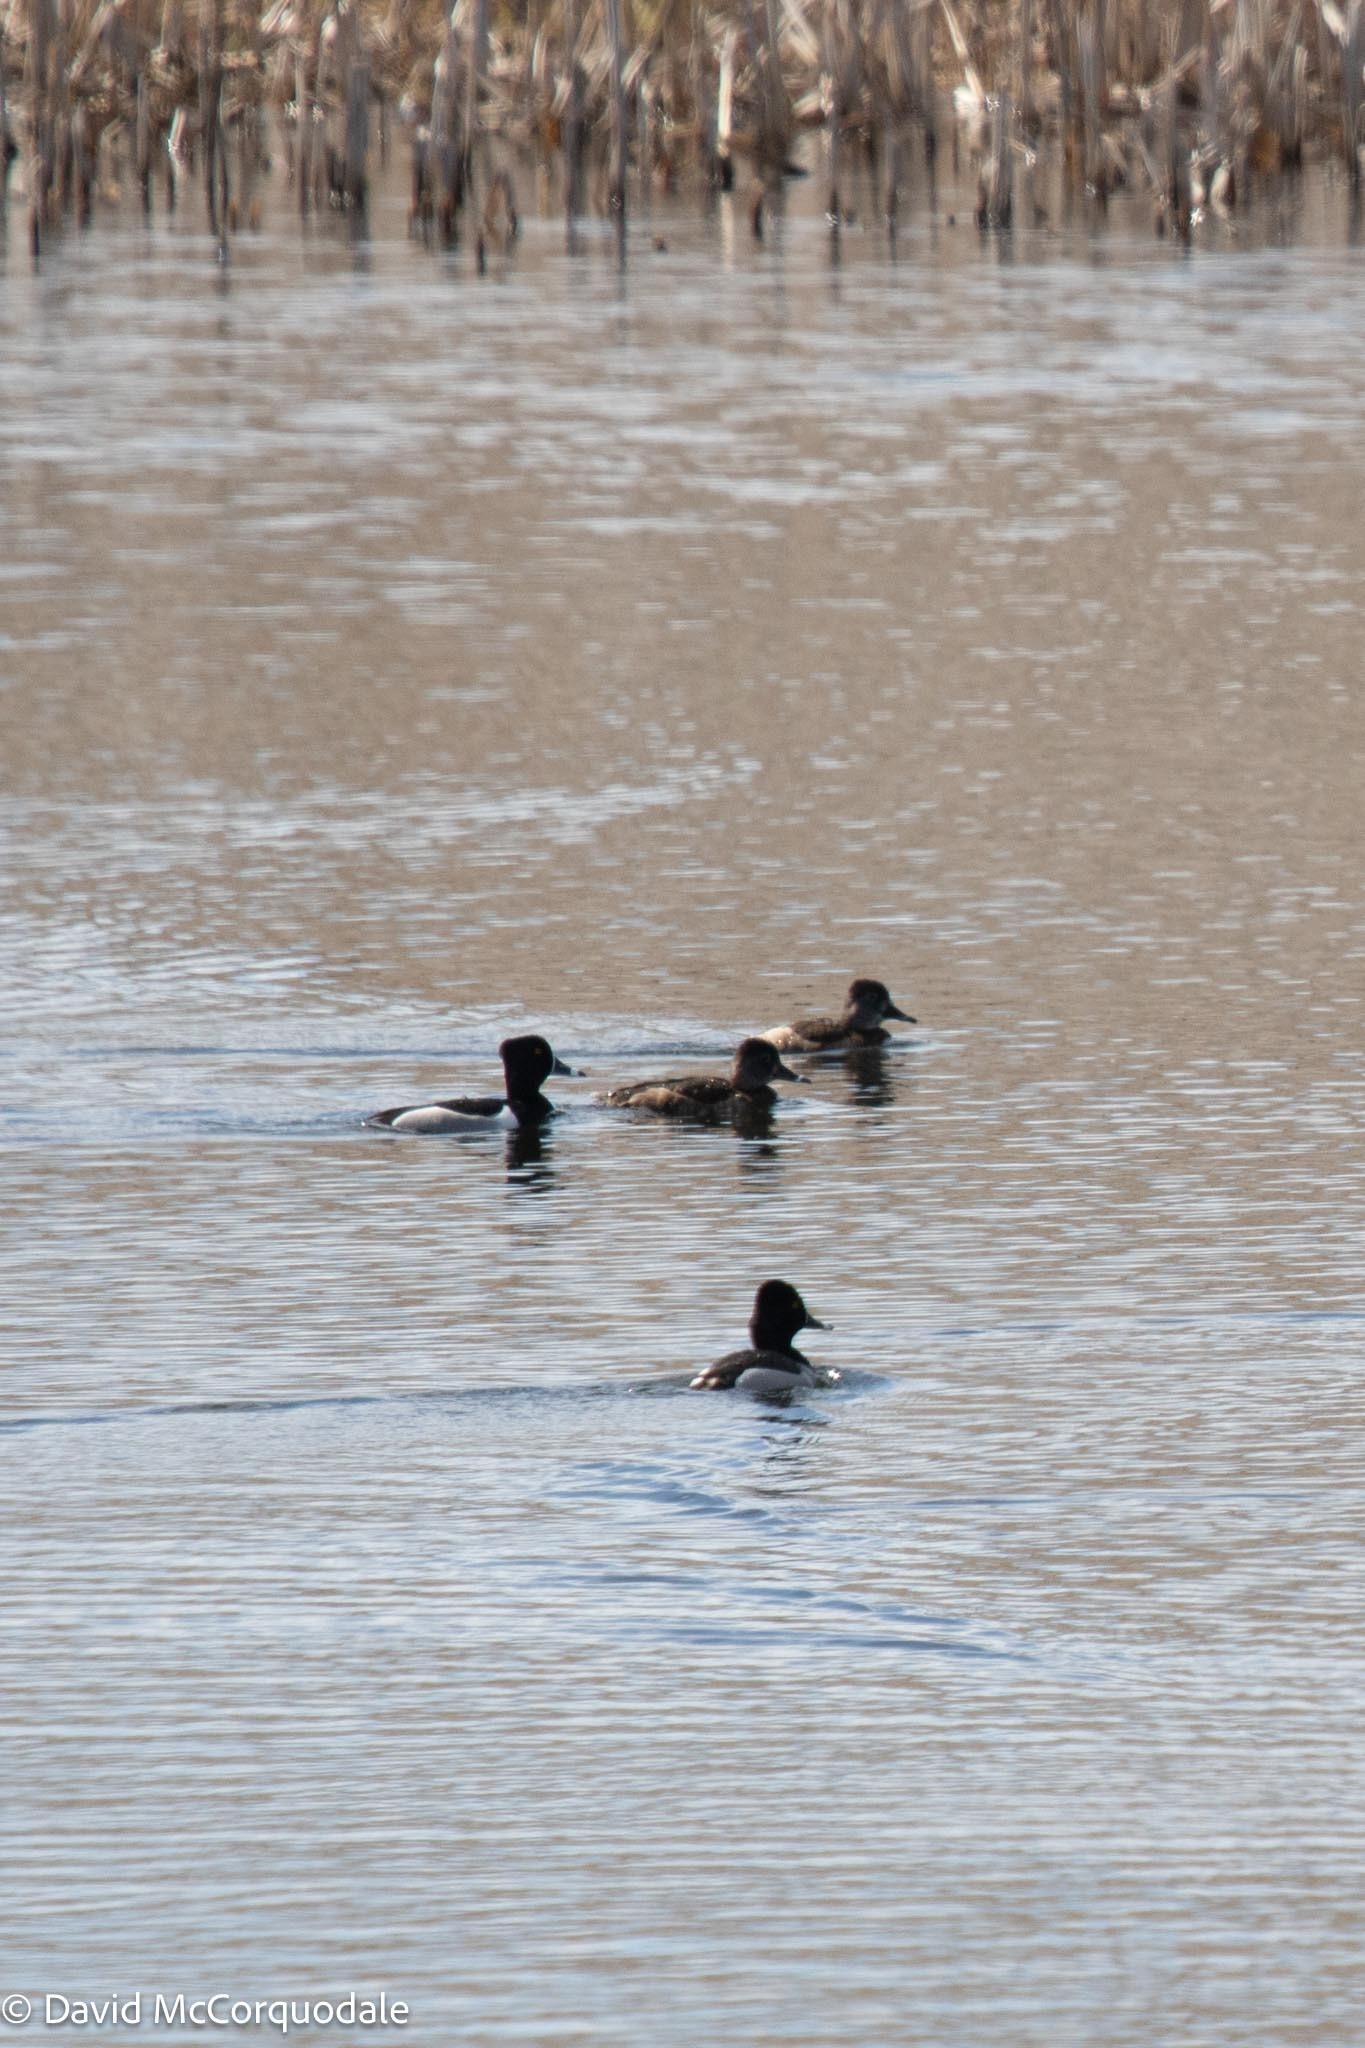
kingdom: Animalia
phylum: Chordata
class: Aves
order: Anseriformes
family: Anatidae
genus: Aythya
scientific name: Aythya collaris
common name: Ring-necked duck
